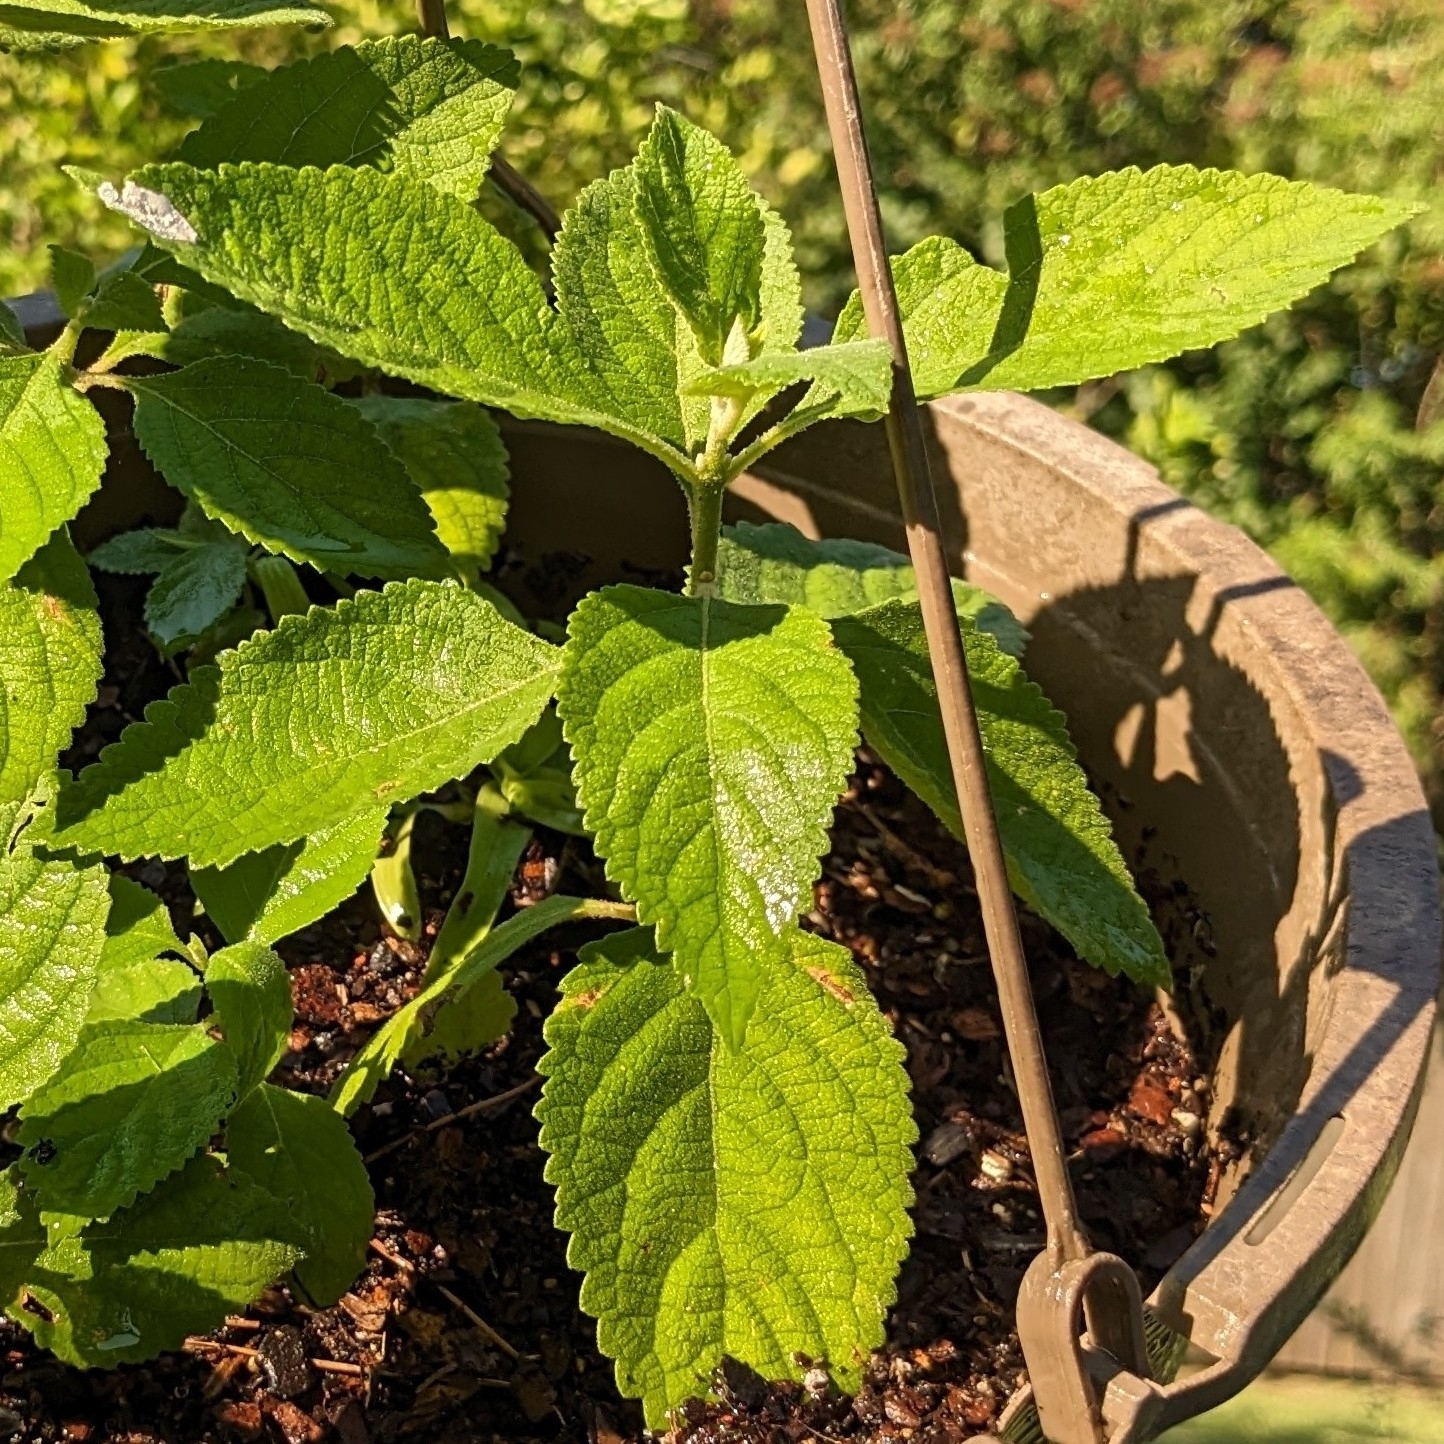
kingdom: Plantae
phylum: Tracheophyta
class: Magnoliopsida
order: Lamiales
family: Lamiaceae
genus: Callicarpa
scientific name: Callicarpa americana
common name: American beautyberry
